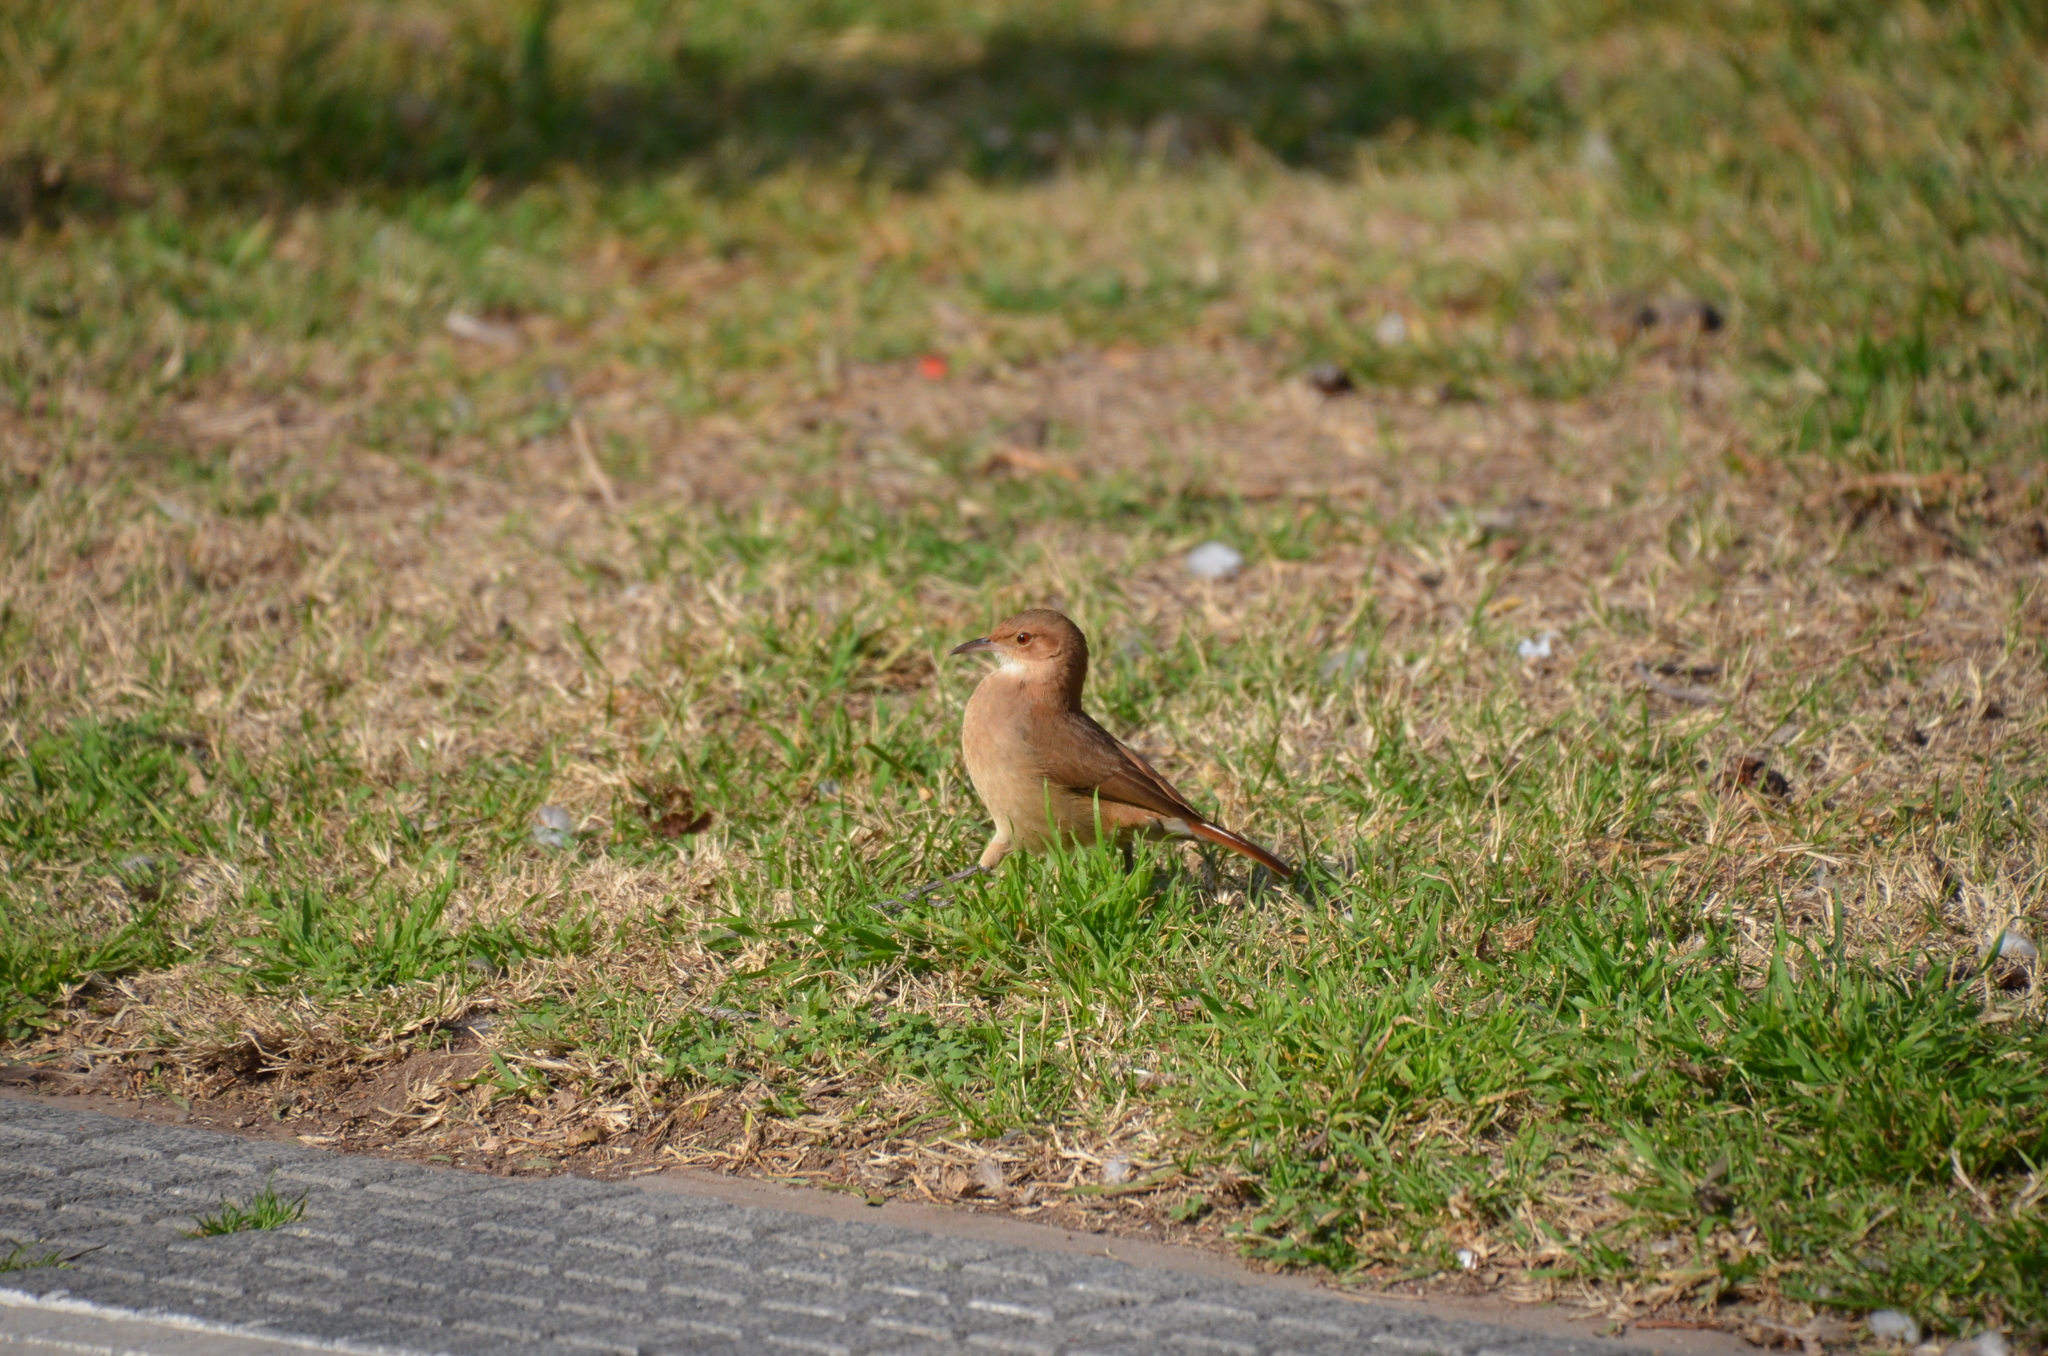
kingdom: Animalia
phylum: Chordata
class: Aves
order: Passeriformes
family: Furnariidae
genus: Furnarius
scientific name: Furnarius rufus
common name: Rufous hornero
